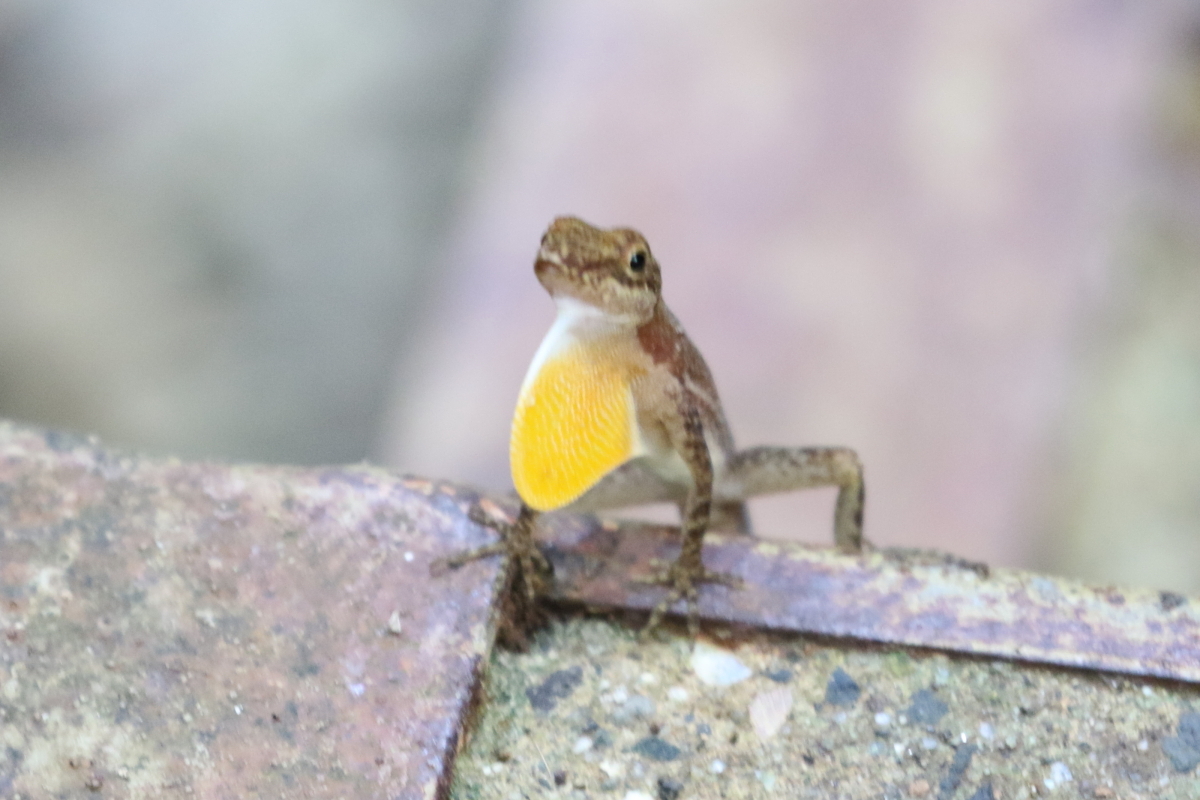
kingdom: Animalia
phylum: Chordata
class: Squamata
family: Dactyloidae
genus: Anolis
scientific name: Anolis apletophallus
